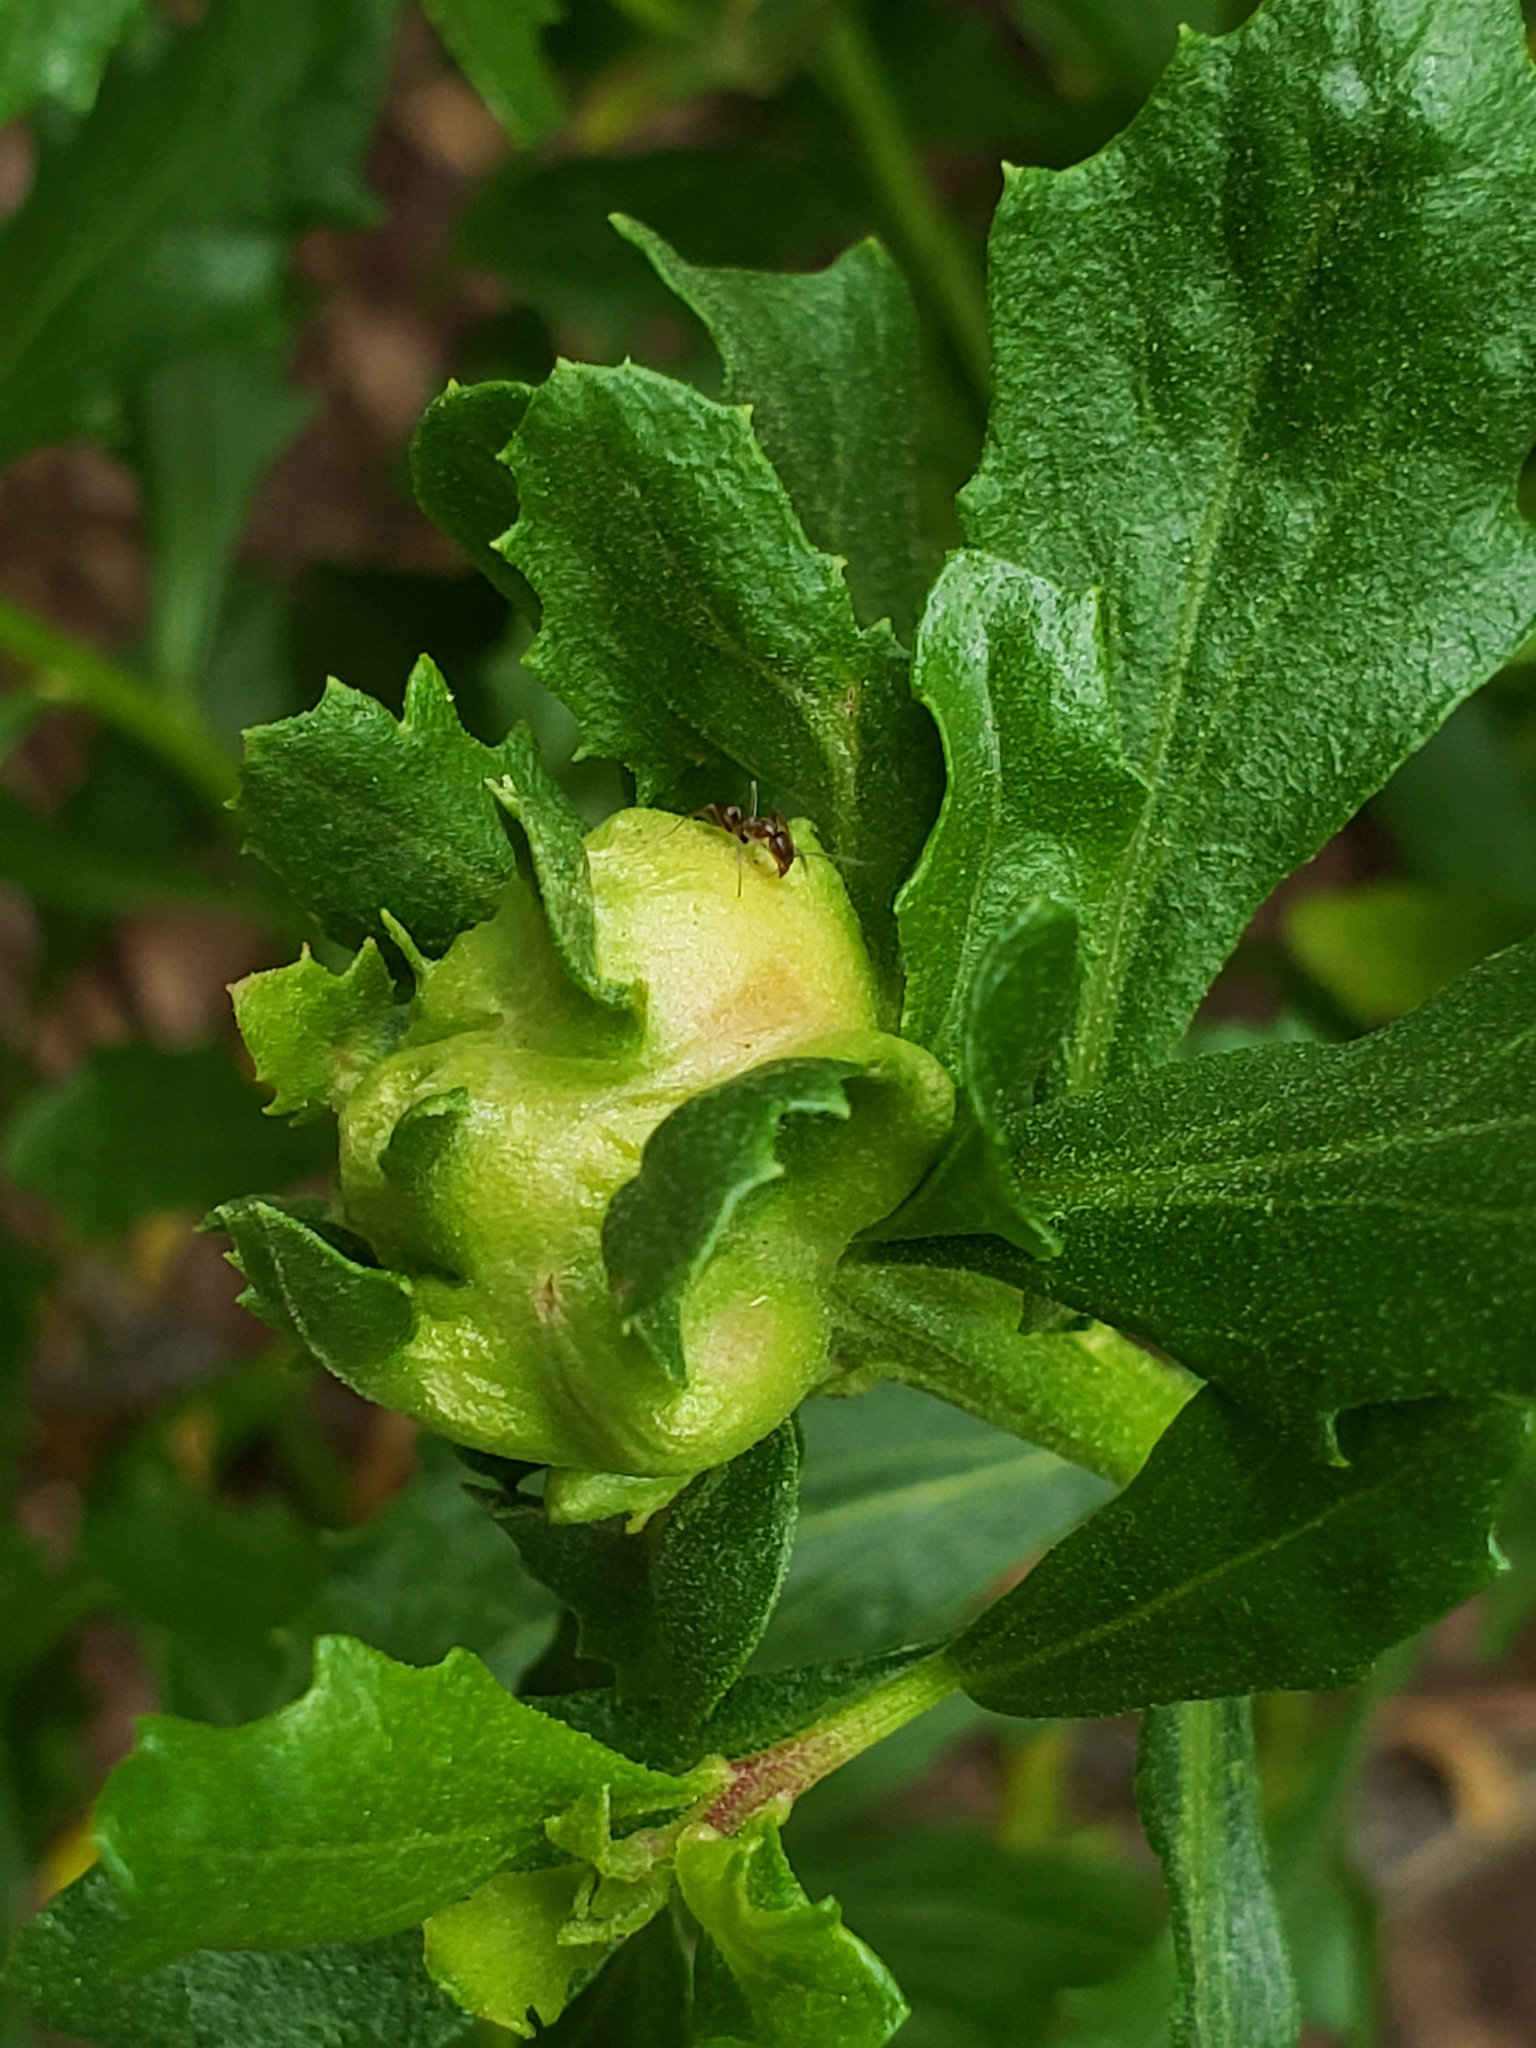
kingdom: Animalia
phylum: Arthropoda
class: Insecta
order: Diptera
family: Cecidomyiidae
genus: Rhopalomyia
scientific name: Rhopalomyia californica
